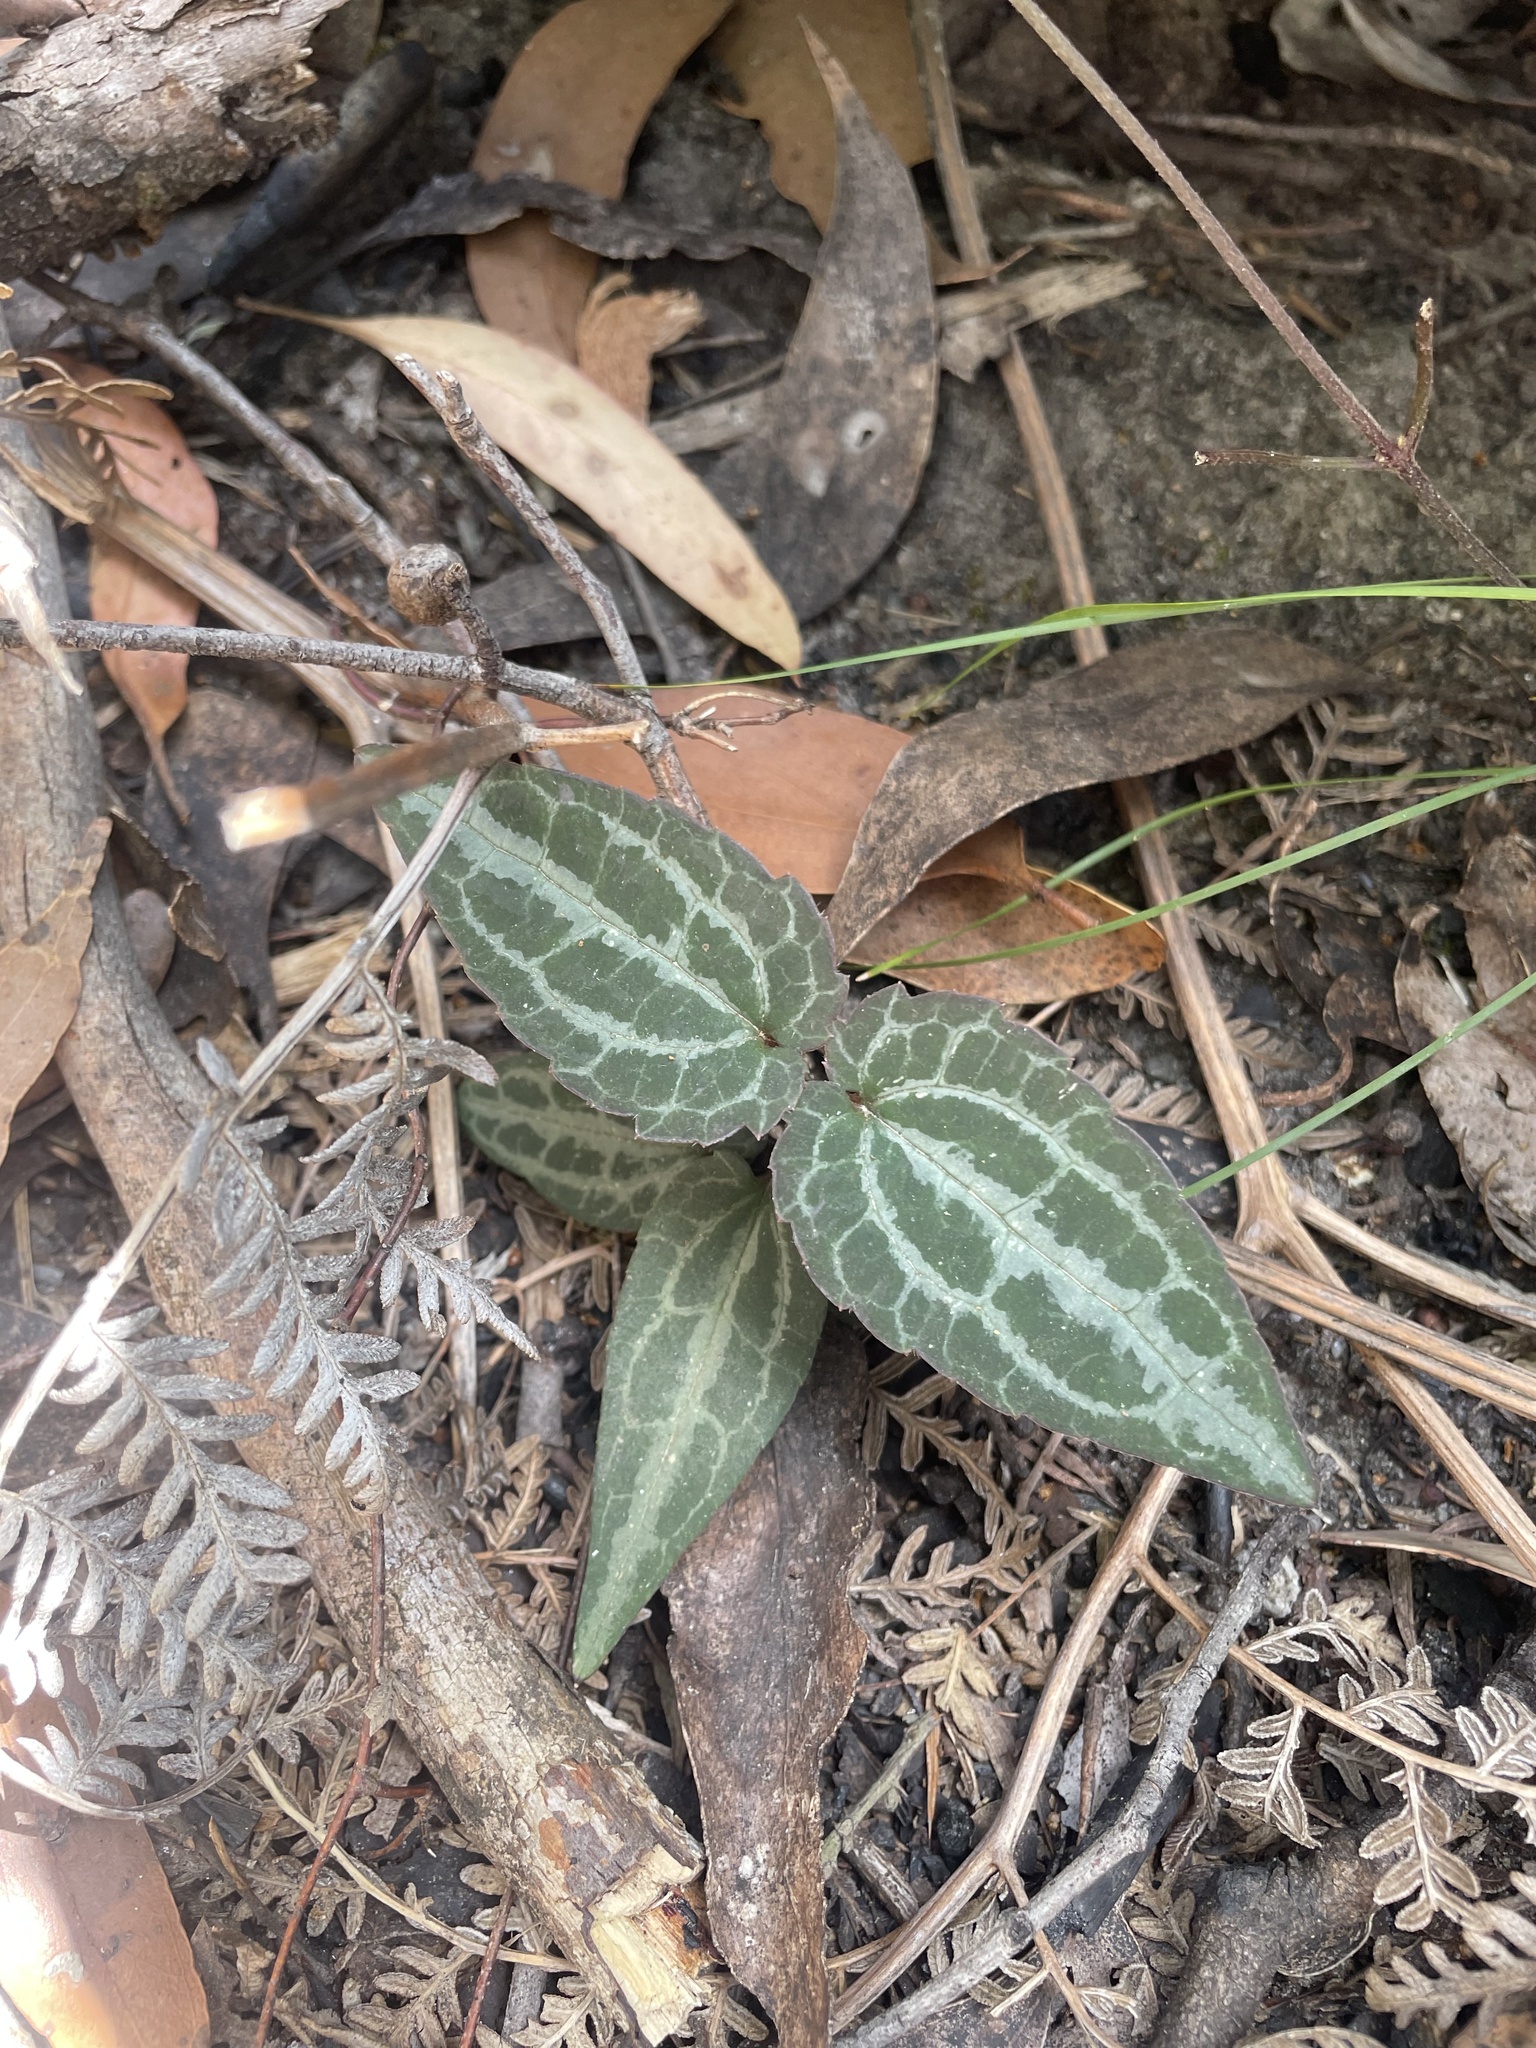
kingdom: Plantae
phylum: Tracheophyta
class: Magnoliopsida
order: Ranunculales
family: Ranunculaceae
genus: Clematis
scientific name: Clematis aristata
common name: Mountain clematis
